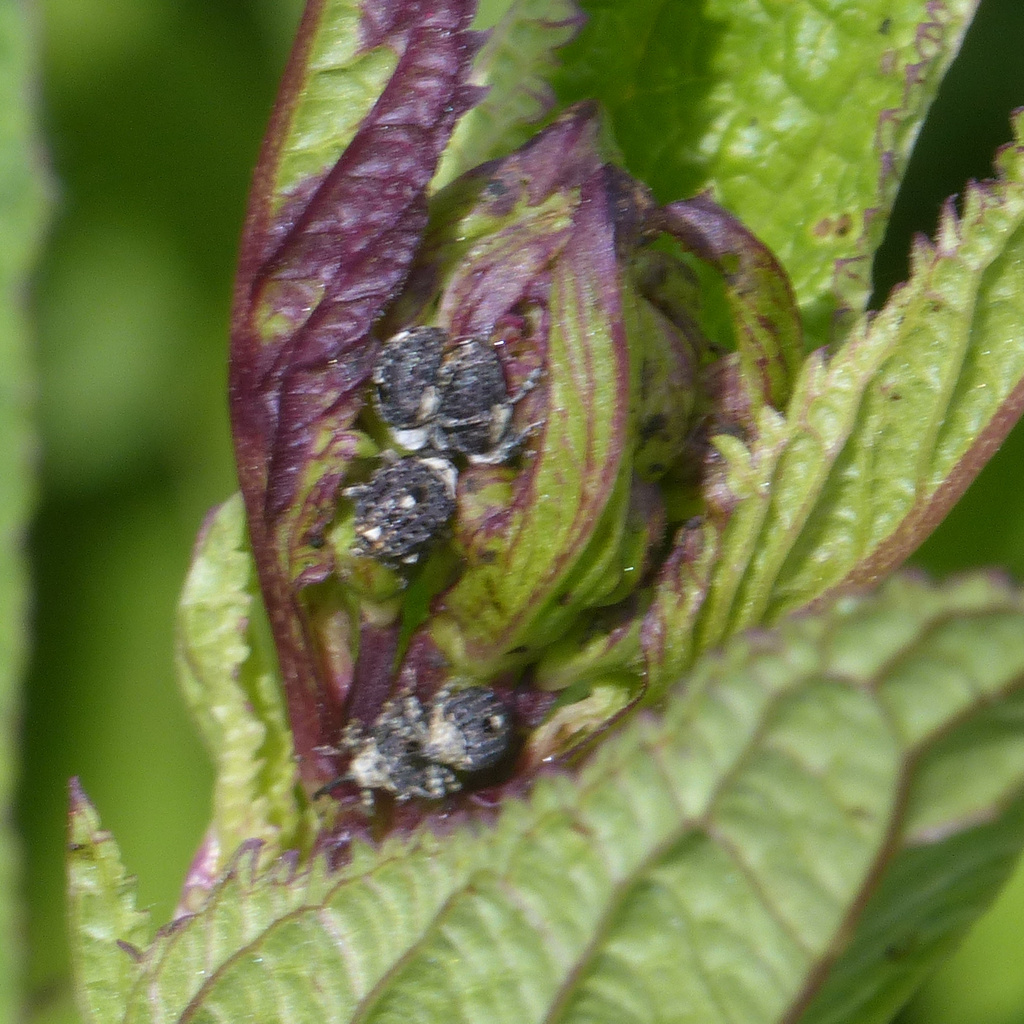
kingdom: Animalia
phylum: Arthropoda
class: Insecta
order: Coleoptera
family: Curculionidae
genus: Cionus
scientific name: Cionus scrophulariae
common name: Common figwort weevil
